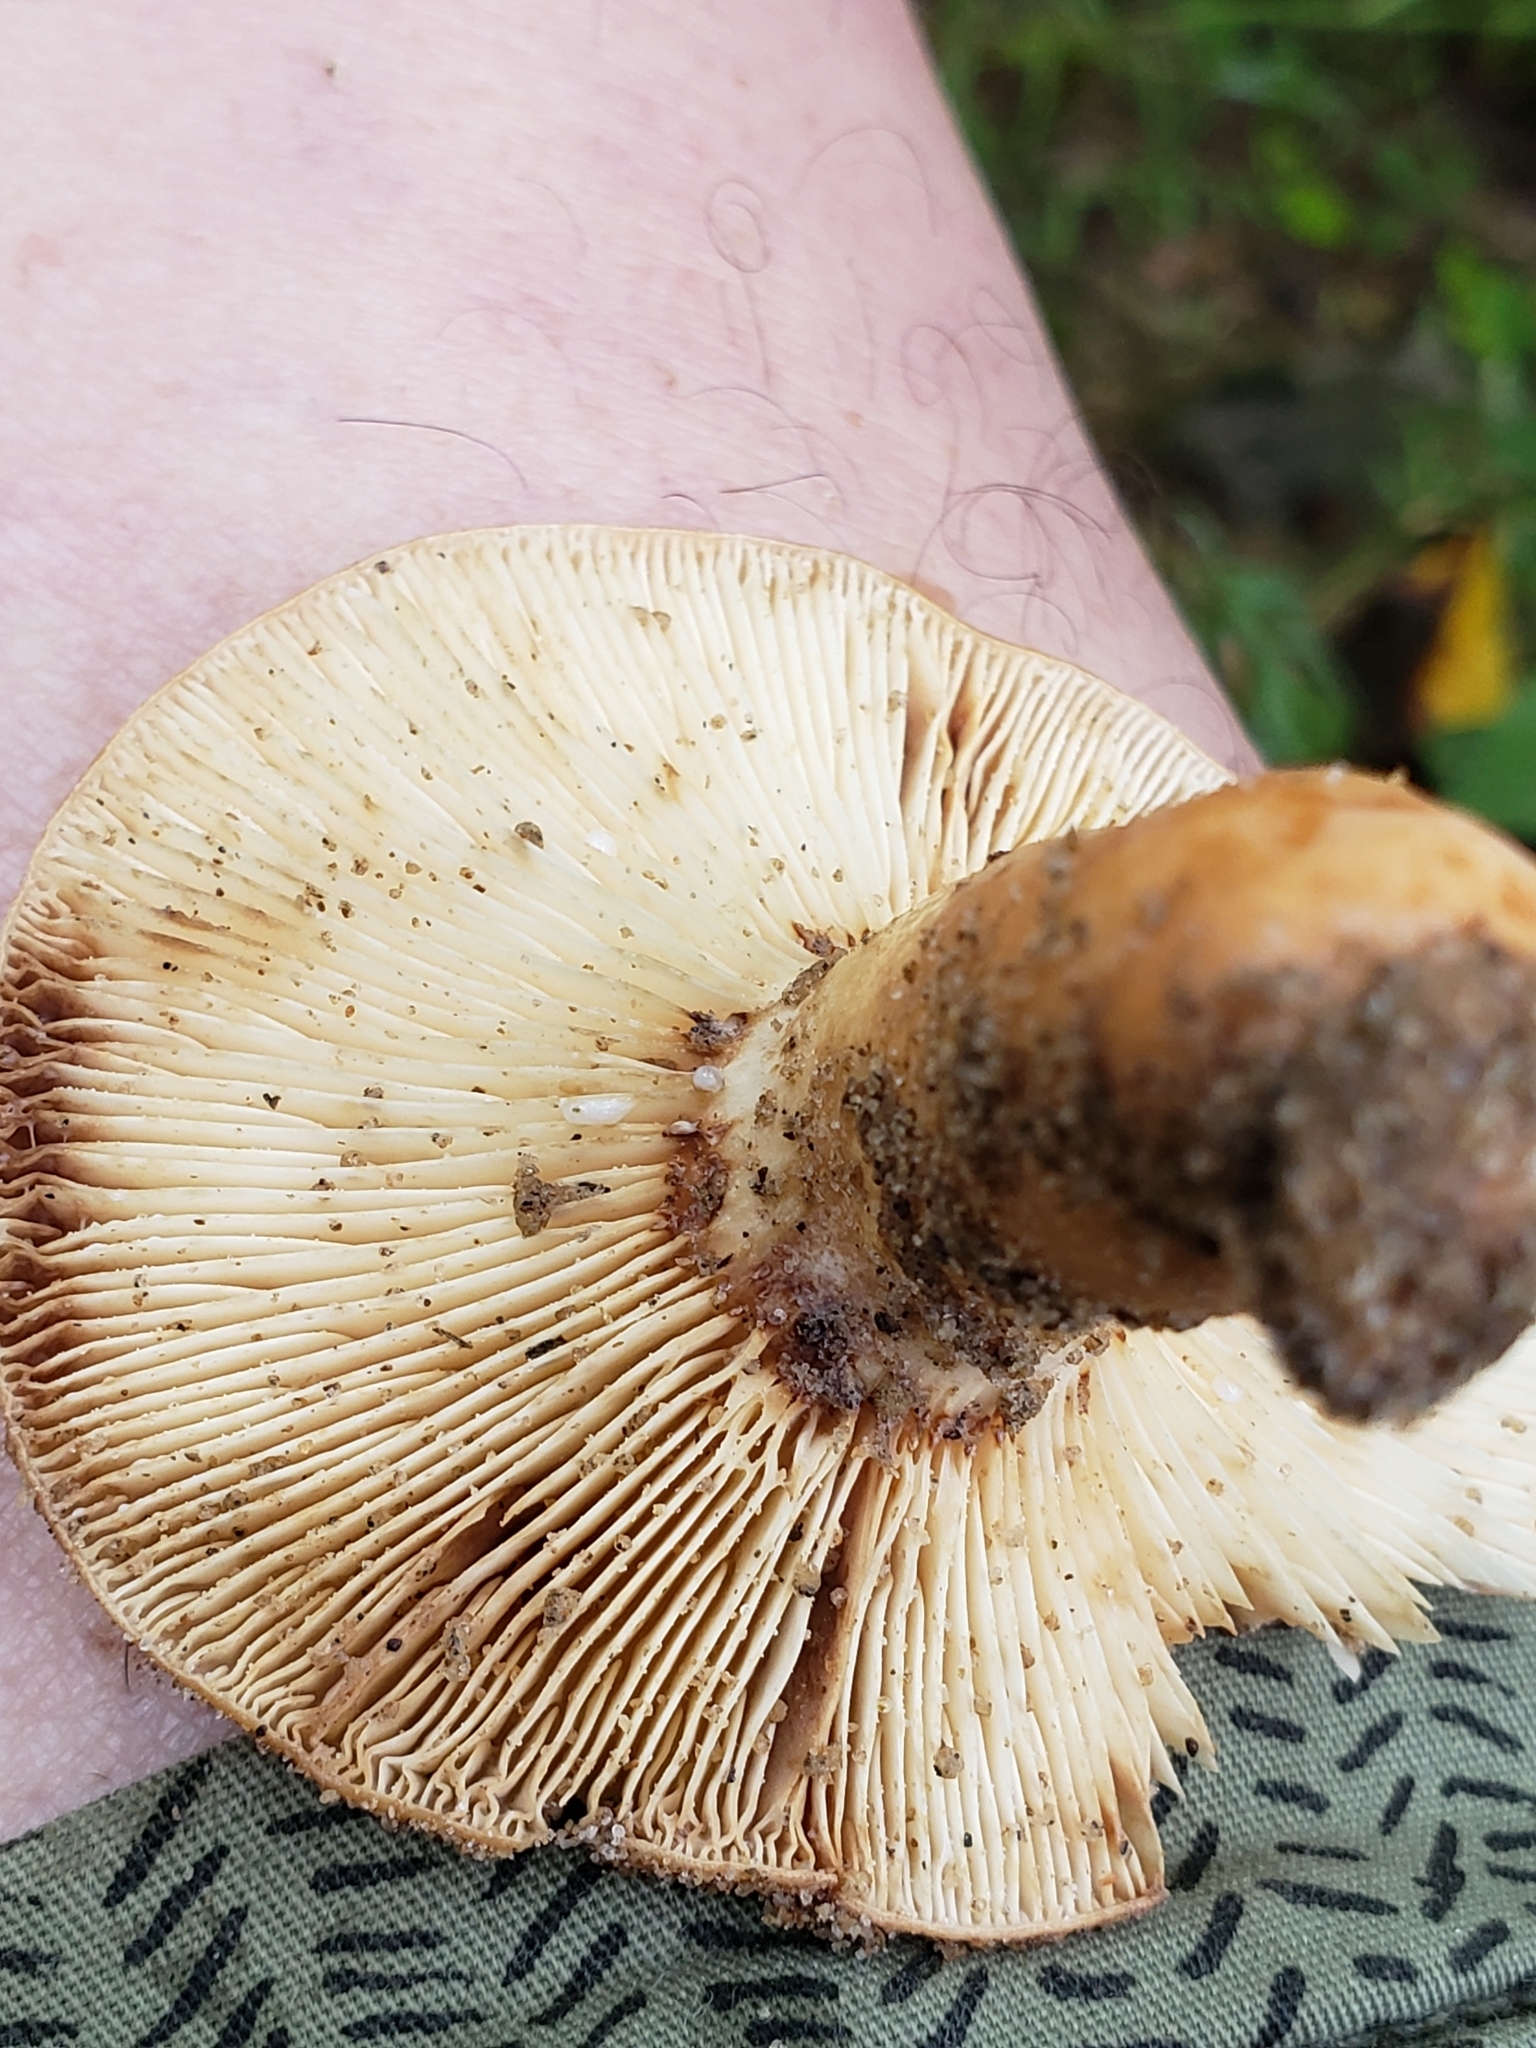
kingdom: Fungi
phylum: Basidiomycota
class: Agaricomycetes
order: Russulales
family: Russulaceae
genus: Lactifluus
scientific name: Lactifluus volemus
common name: Fishy milkcap
